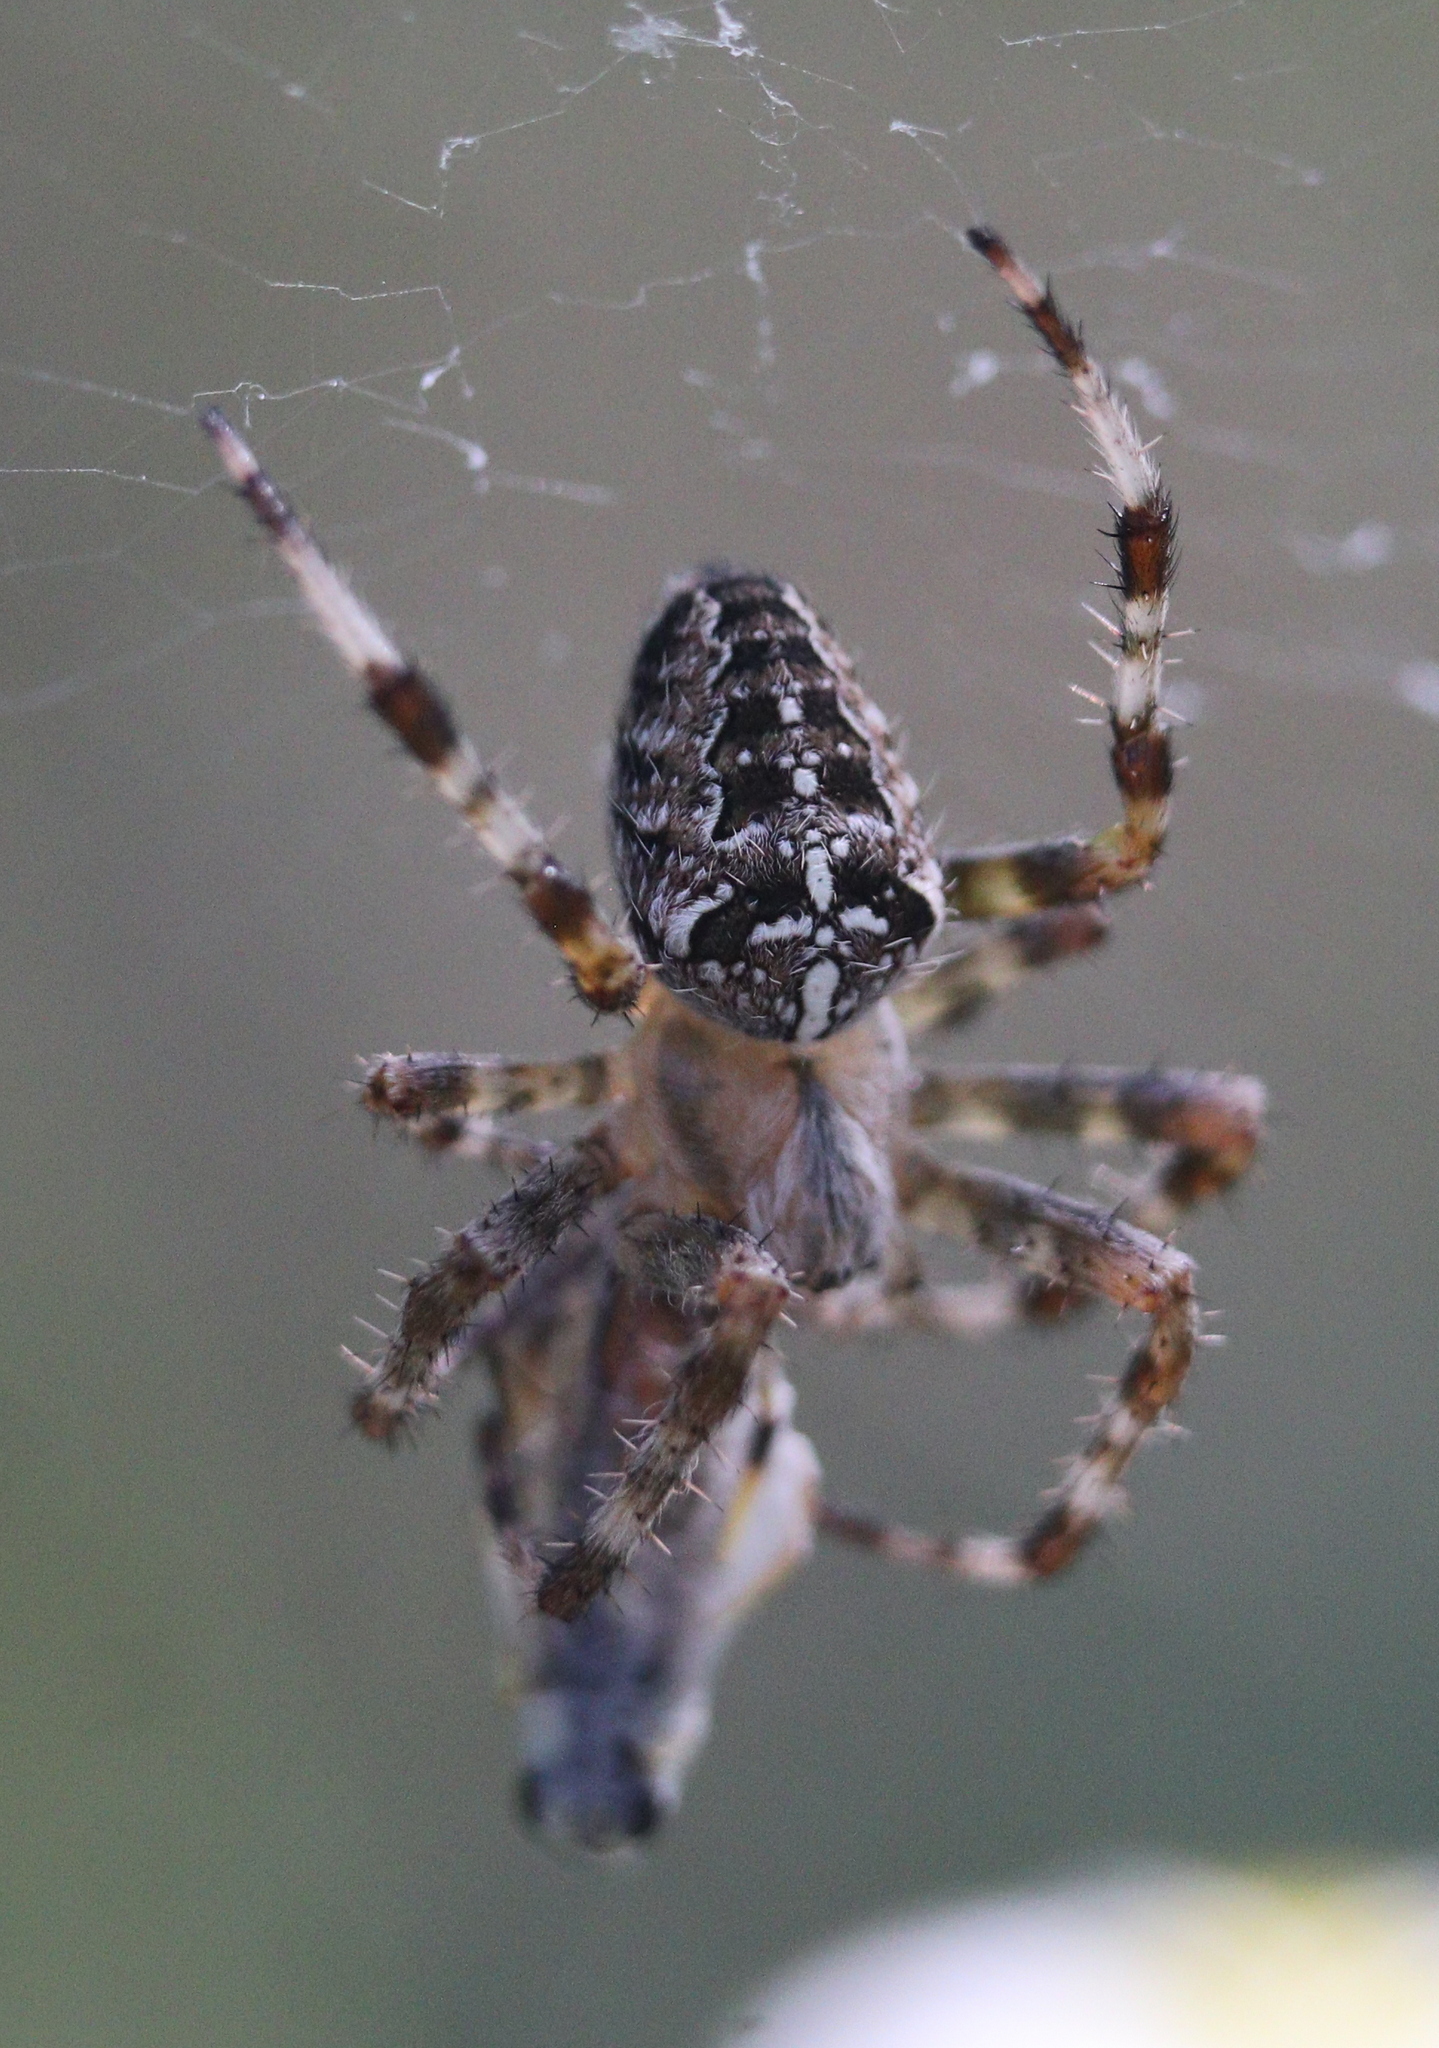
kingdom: Animalia
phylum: Arthropoda
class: Arachnida
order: Araneae
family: Araneidae
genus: Araneus
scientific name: Araneus diadematus
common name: Cross orbweaver
